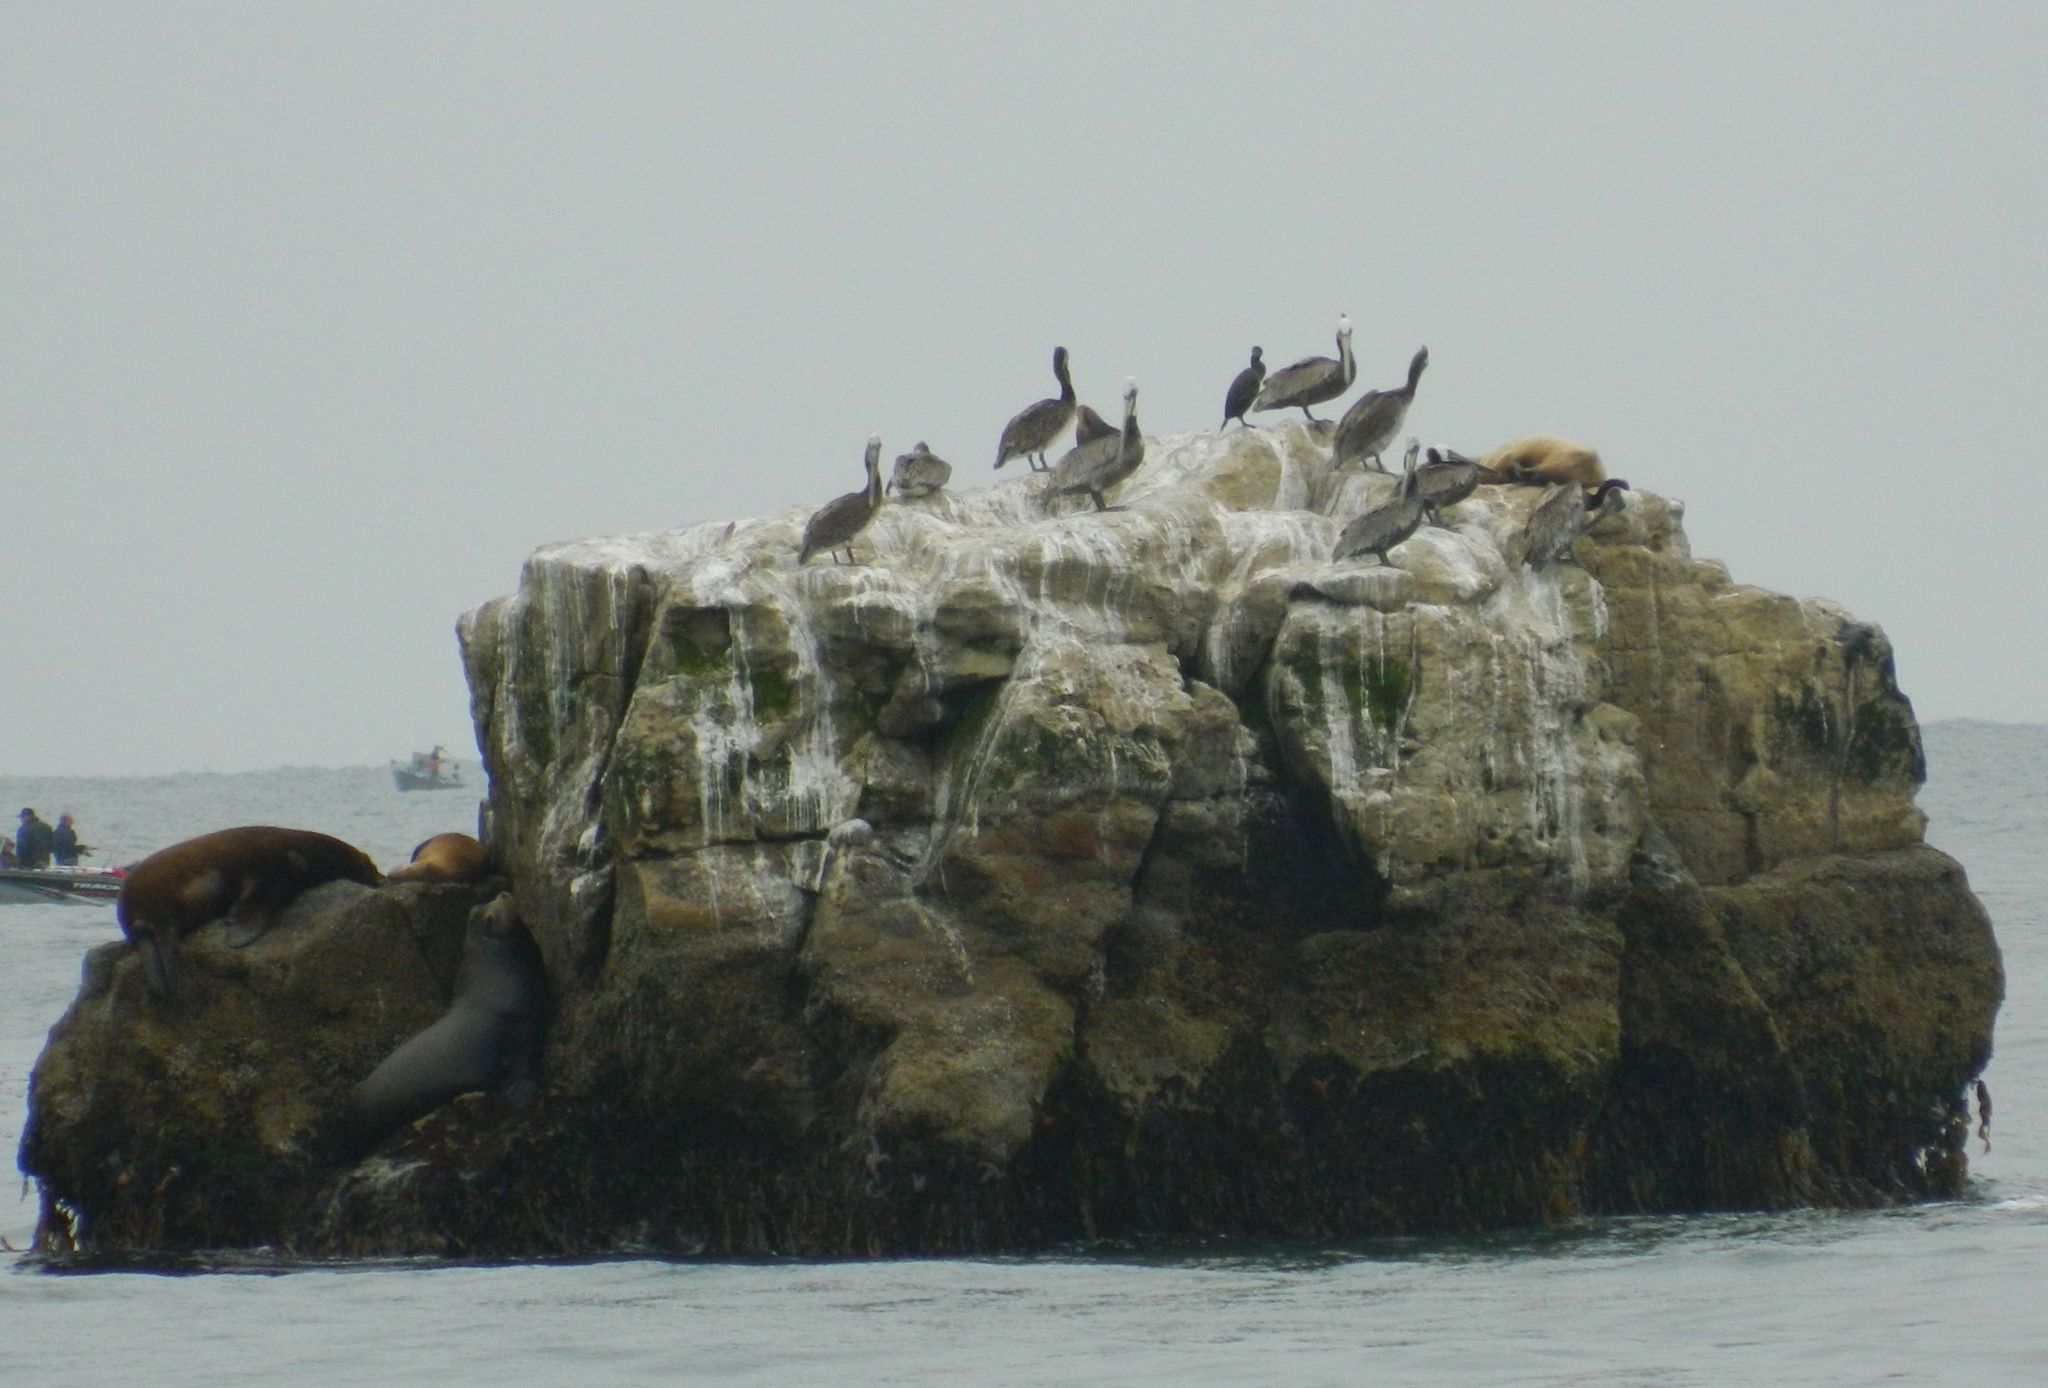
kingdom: Animalia
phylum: Chordata
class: Mammalia
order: Carnivora
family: Otariidae
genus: Zalophus
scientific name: Zalophus californianus
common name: California sea lion
